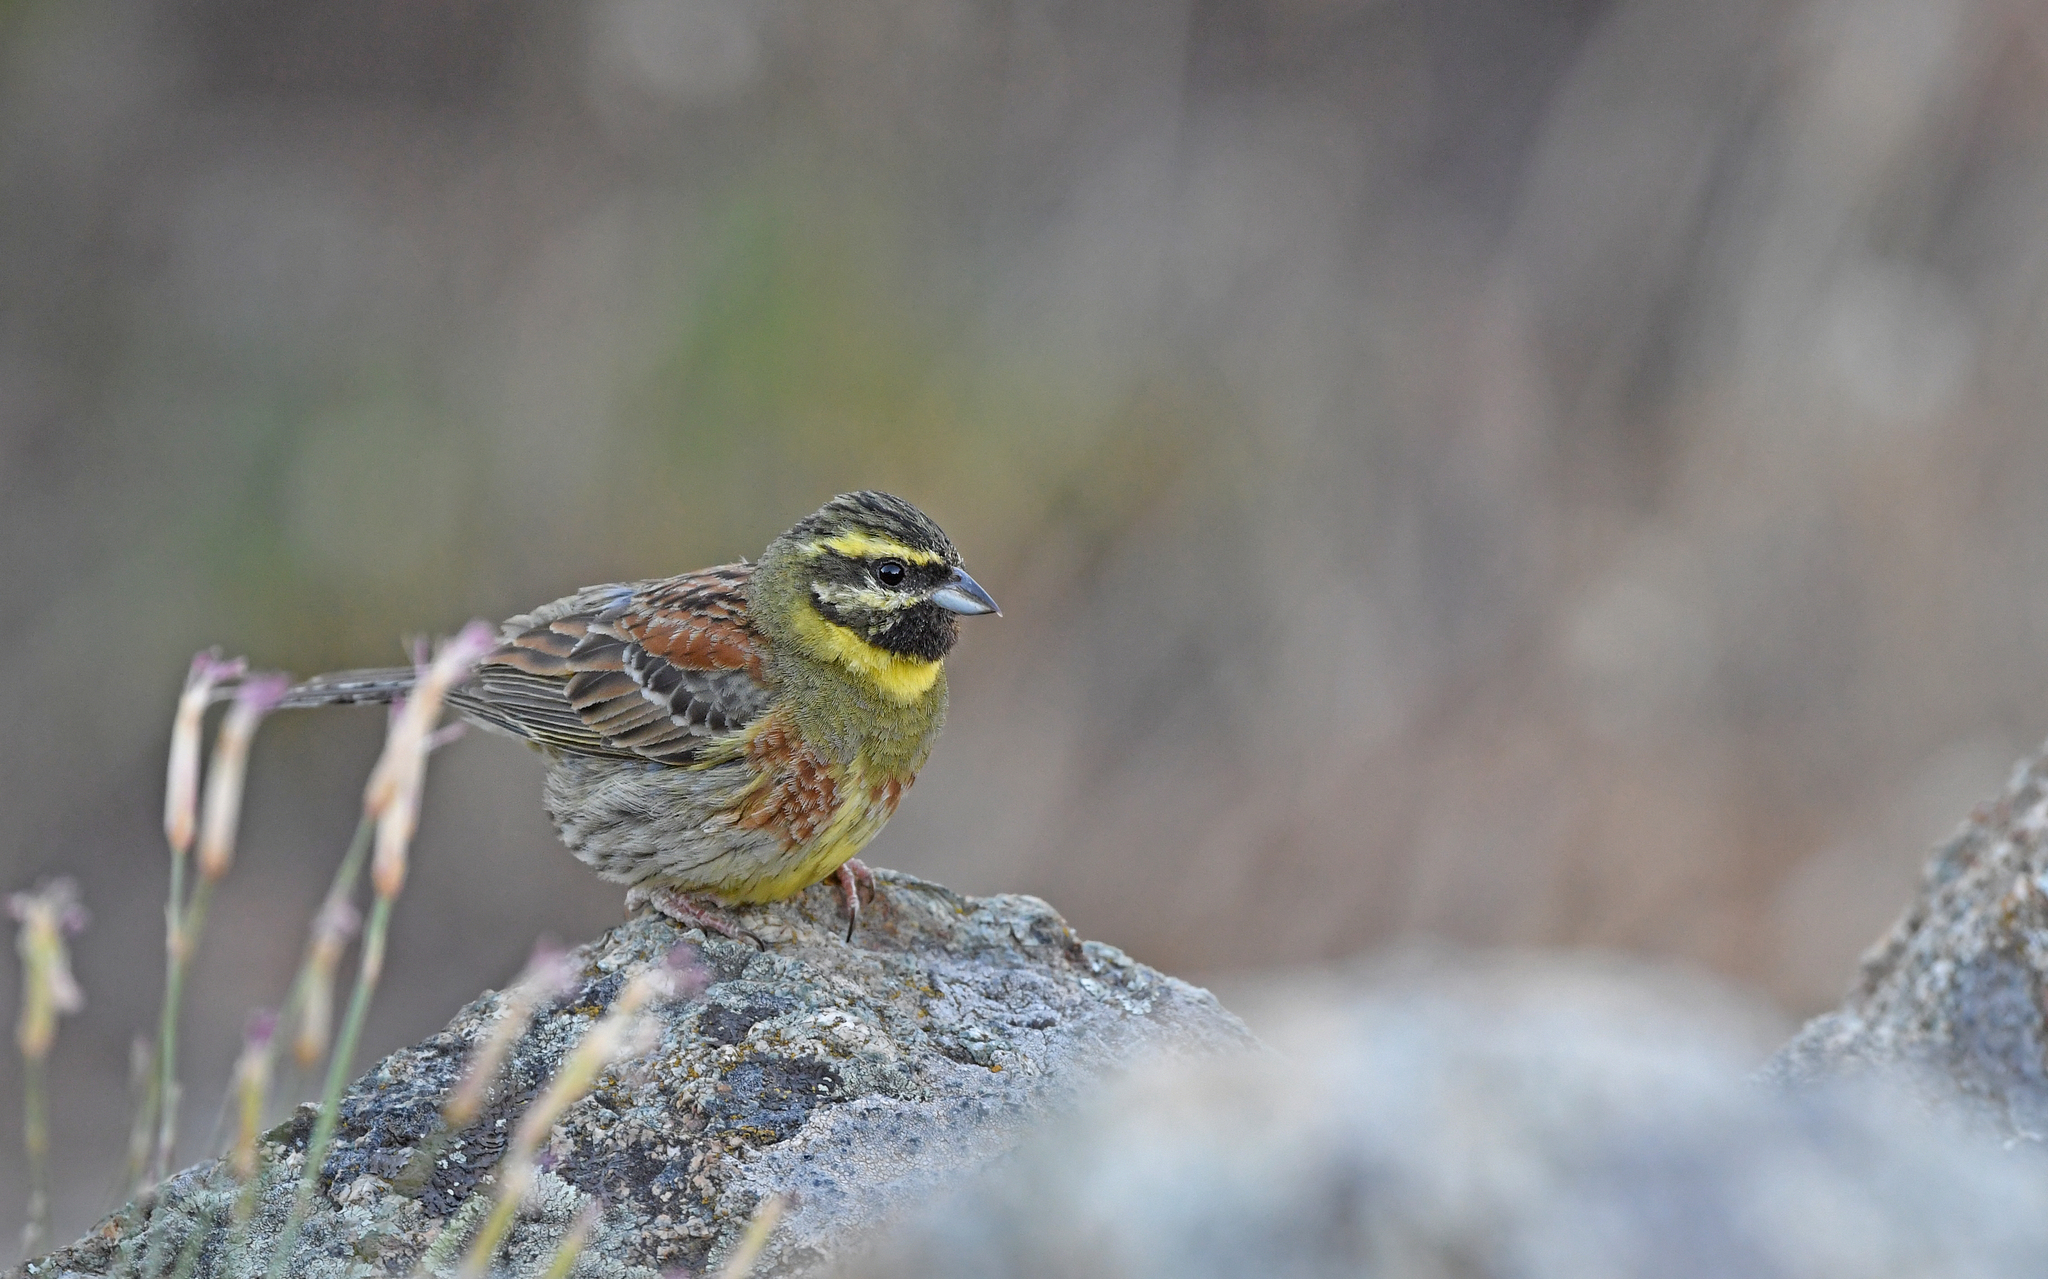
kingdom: Animalia
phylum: Chordata
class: Aves
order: Passeriformes
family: Emberizidae
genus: Emberiza
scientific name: Emberiza cirlus
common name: Cirl bunting
